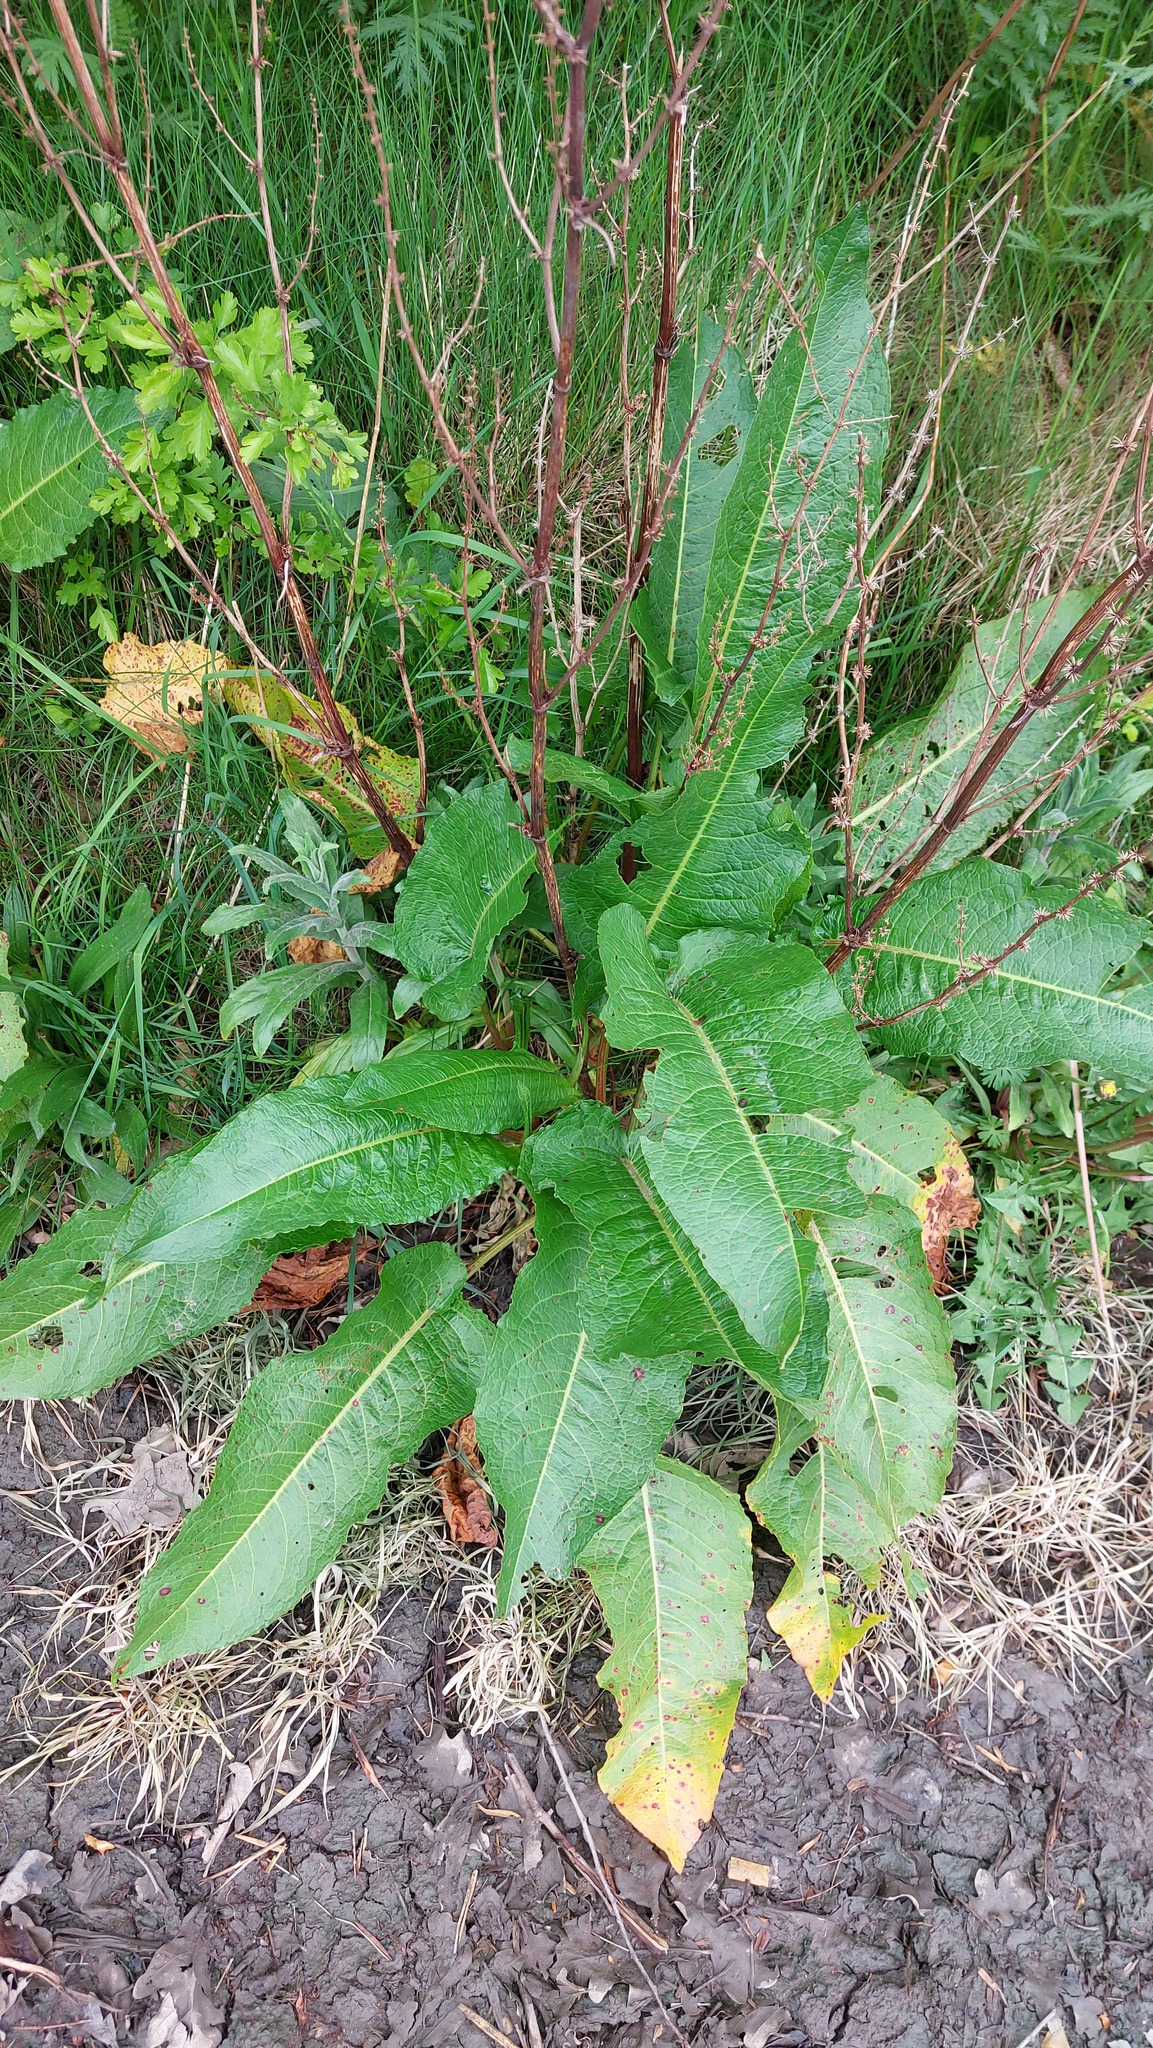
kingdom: Plantae
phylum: Tracheophyta
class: Magnoliopsida
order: Caryophyllales
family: Polygonaceae
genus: Rumex
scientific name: Rumex obtusifolius
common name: Bitter dock
